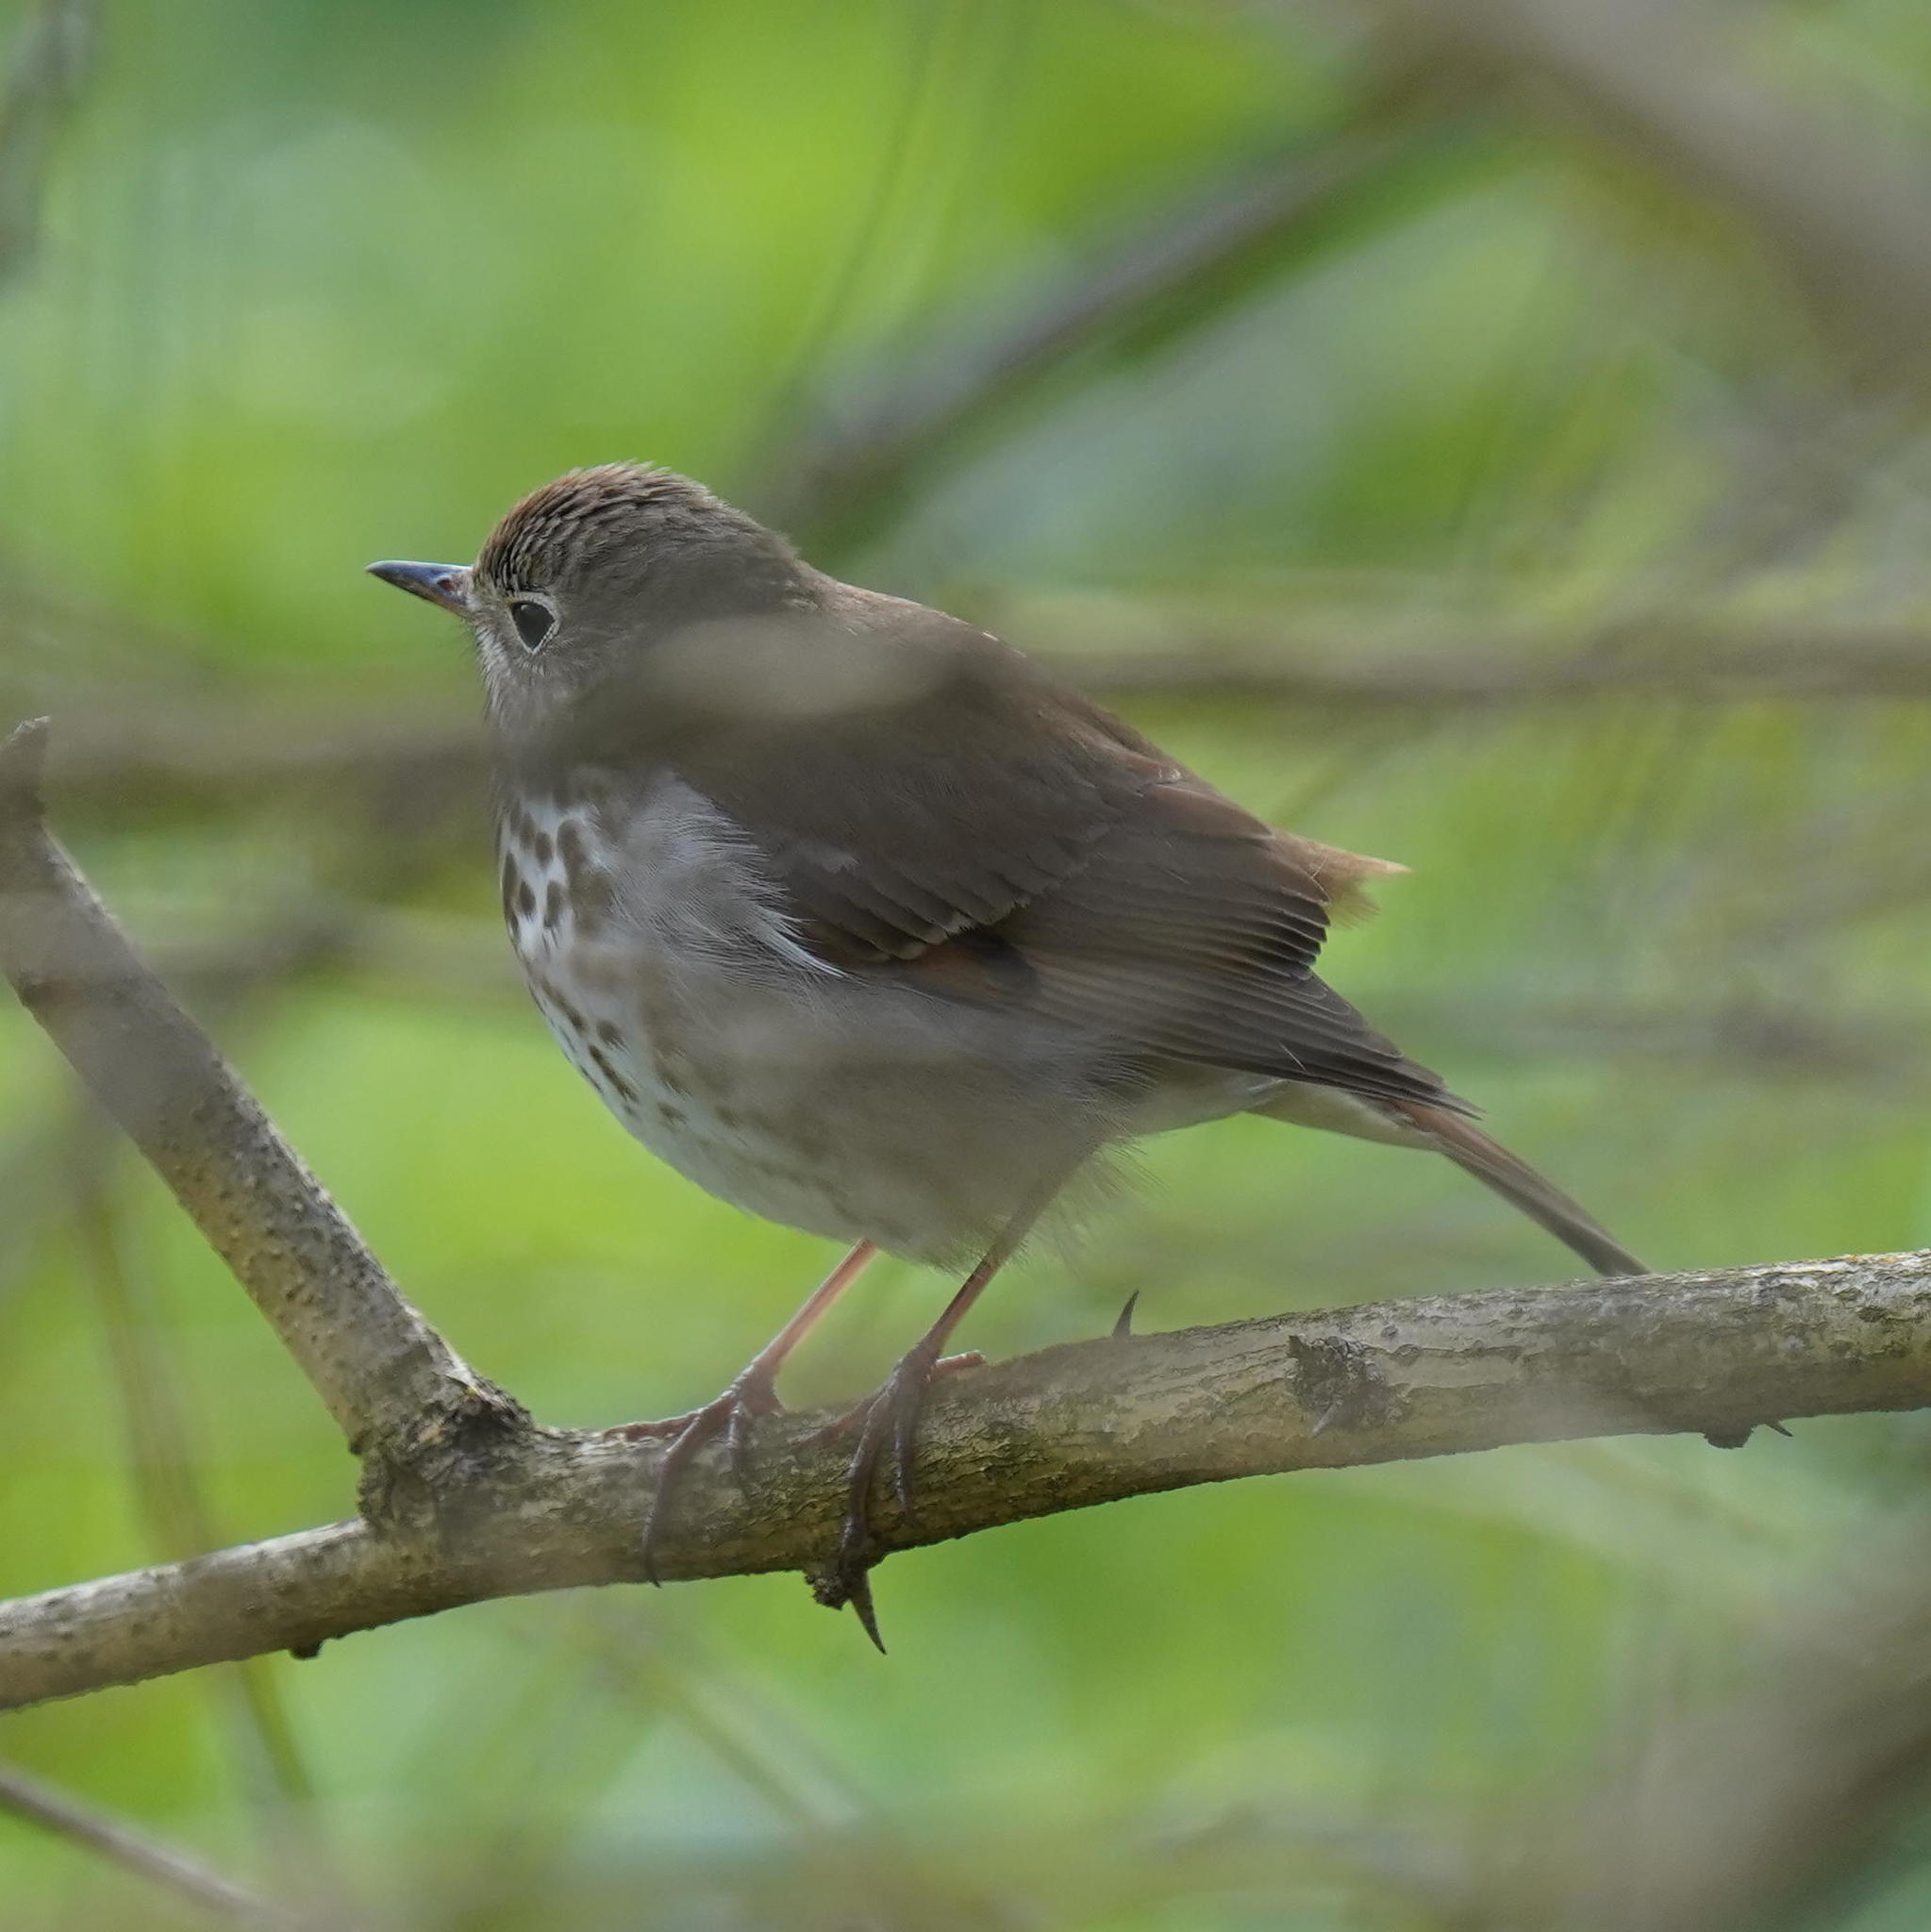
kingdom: Animalia
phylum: Chordata
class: Aves
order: Passeriformes
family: Turdidae
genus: Catharus
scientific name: Catharus guttatus
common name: Hermit thrush
